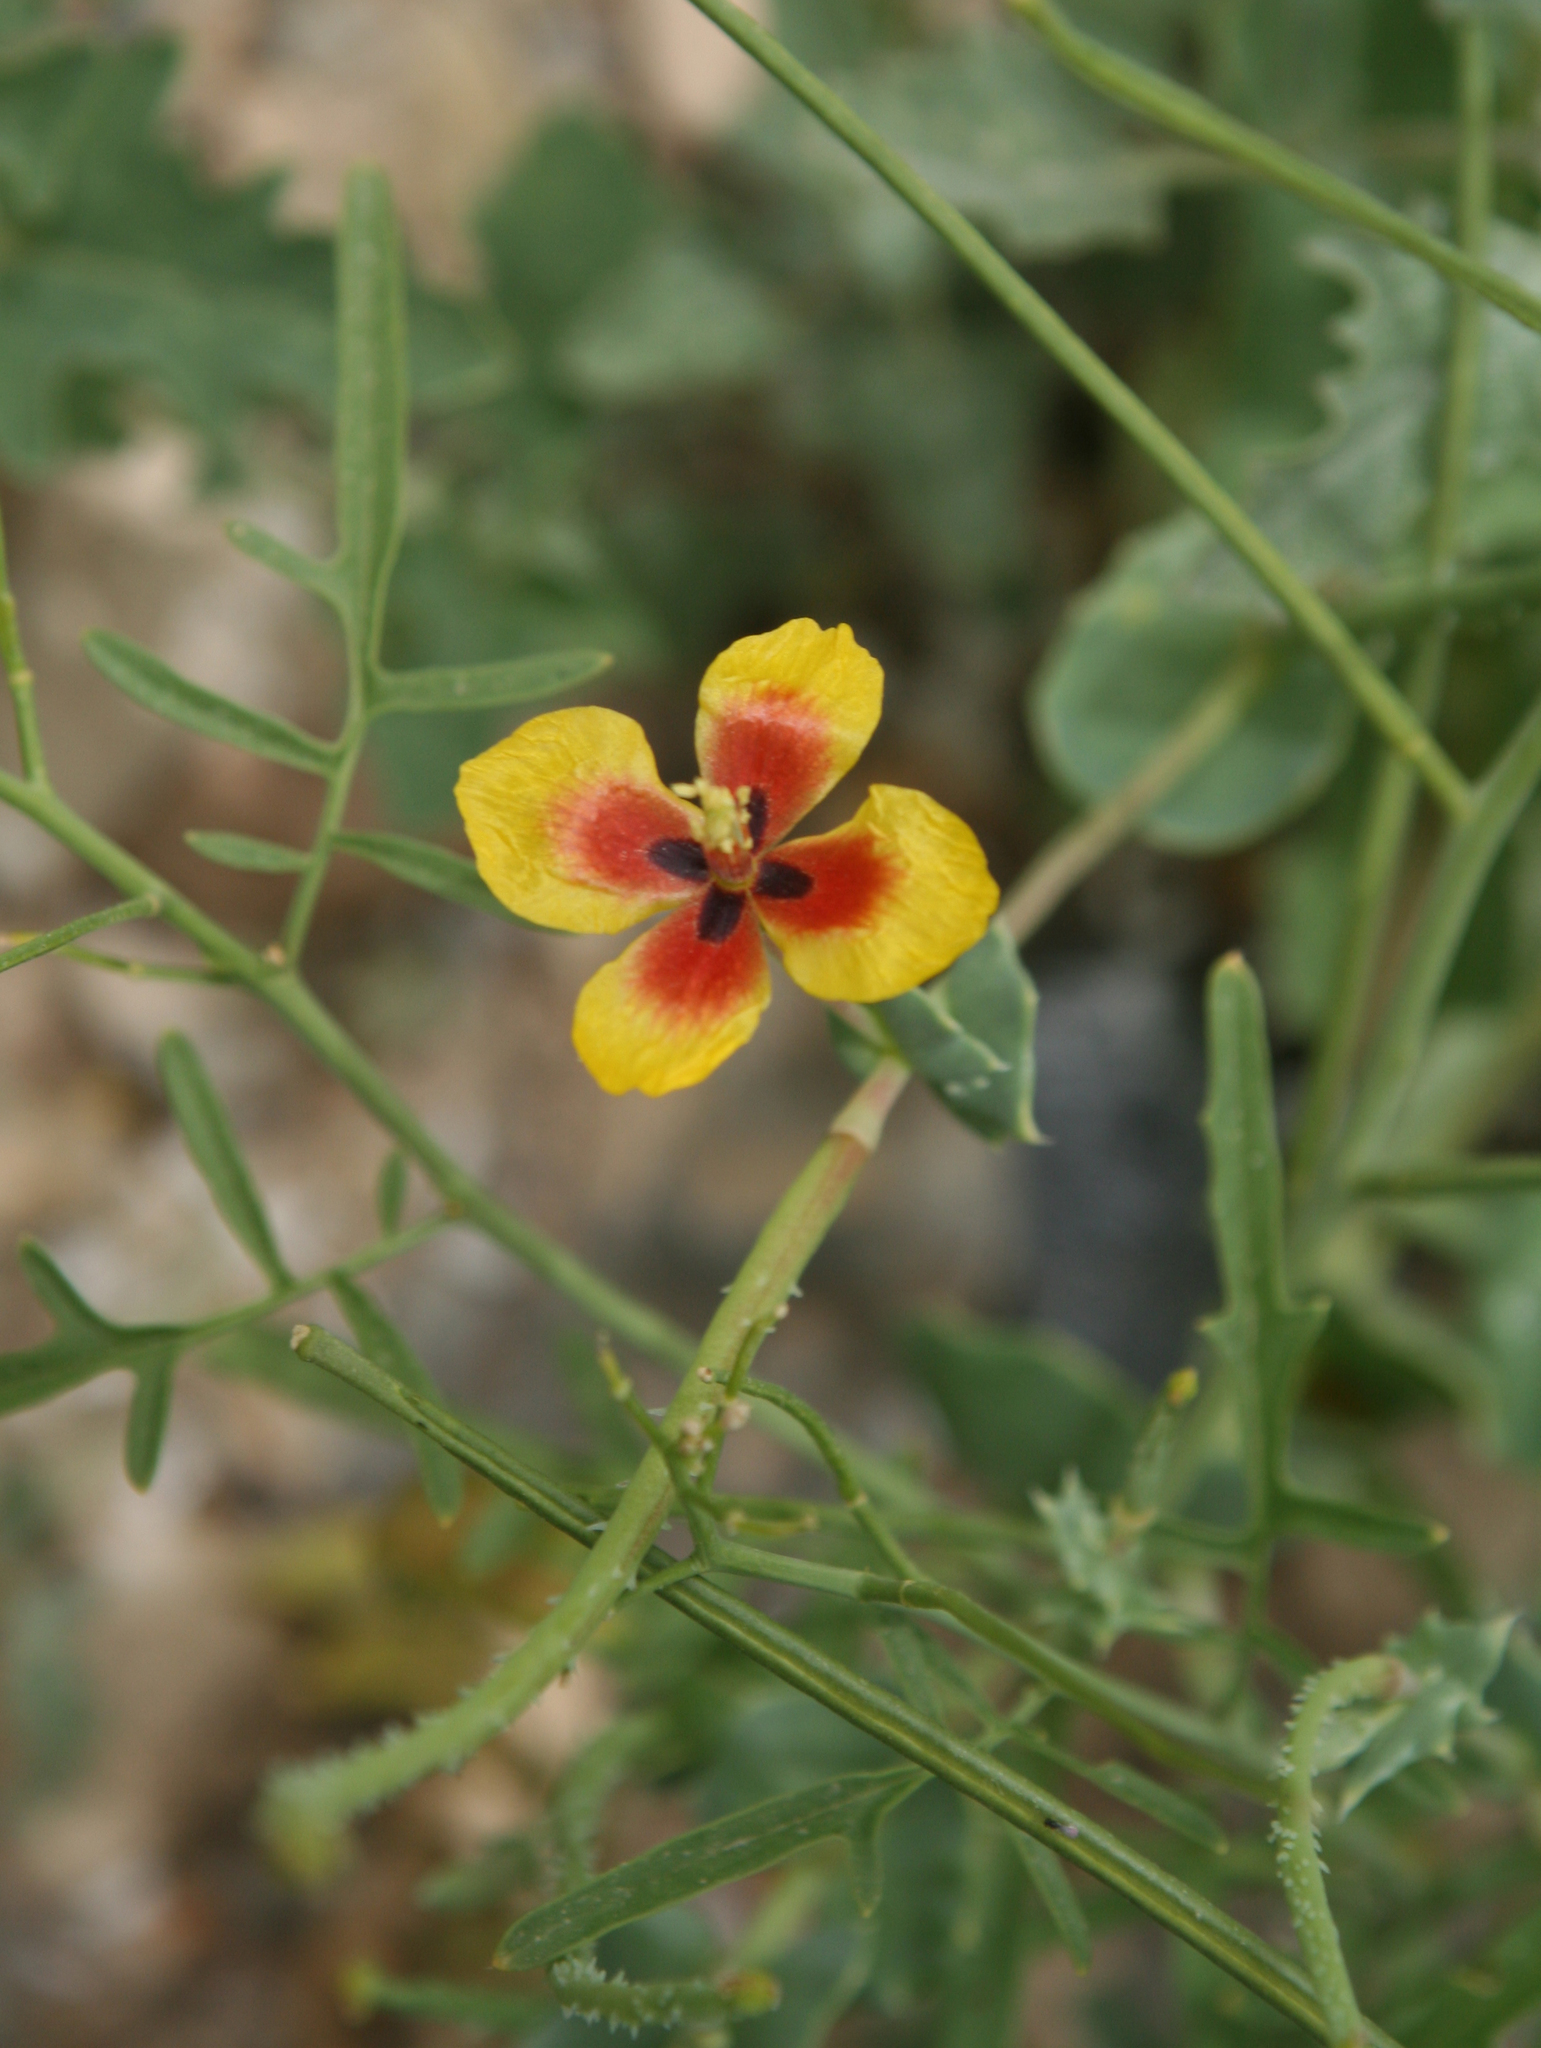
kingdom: Plantae
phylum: Tracheophyta
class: Magnoliopsida
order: Ranunculales
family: Papaveraceae
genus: Glaucium
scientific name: Glaucium elegans
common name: Annual horned-poppy
